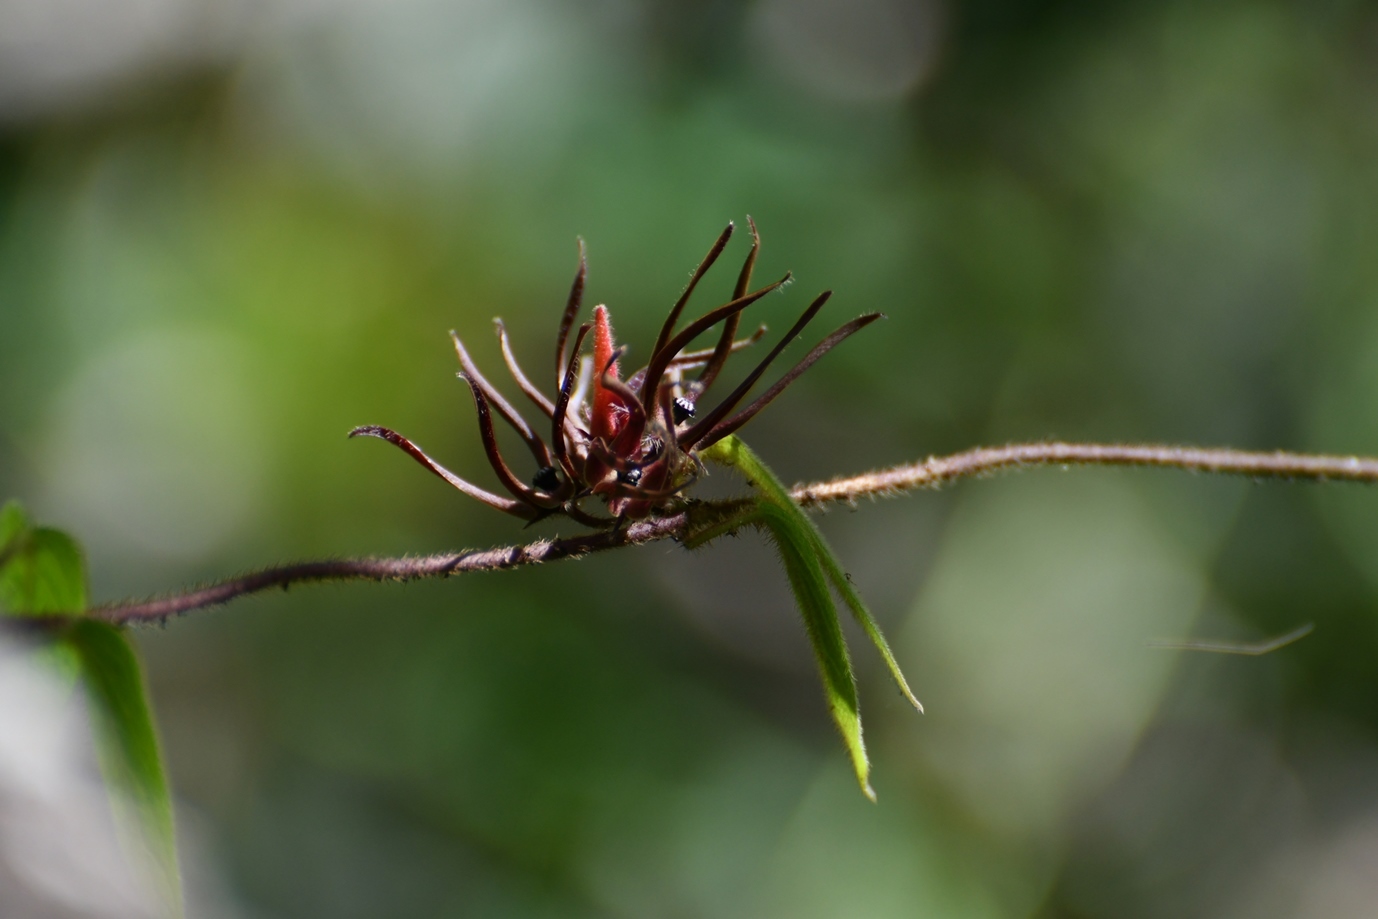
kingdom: Plantae
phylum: Tracheophyta
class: Magnoliopsida
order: Gentianales
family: Apocynaceae
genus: Matelea
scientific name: Matelea medusae
